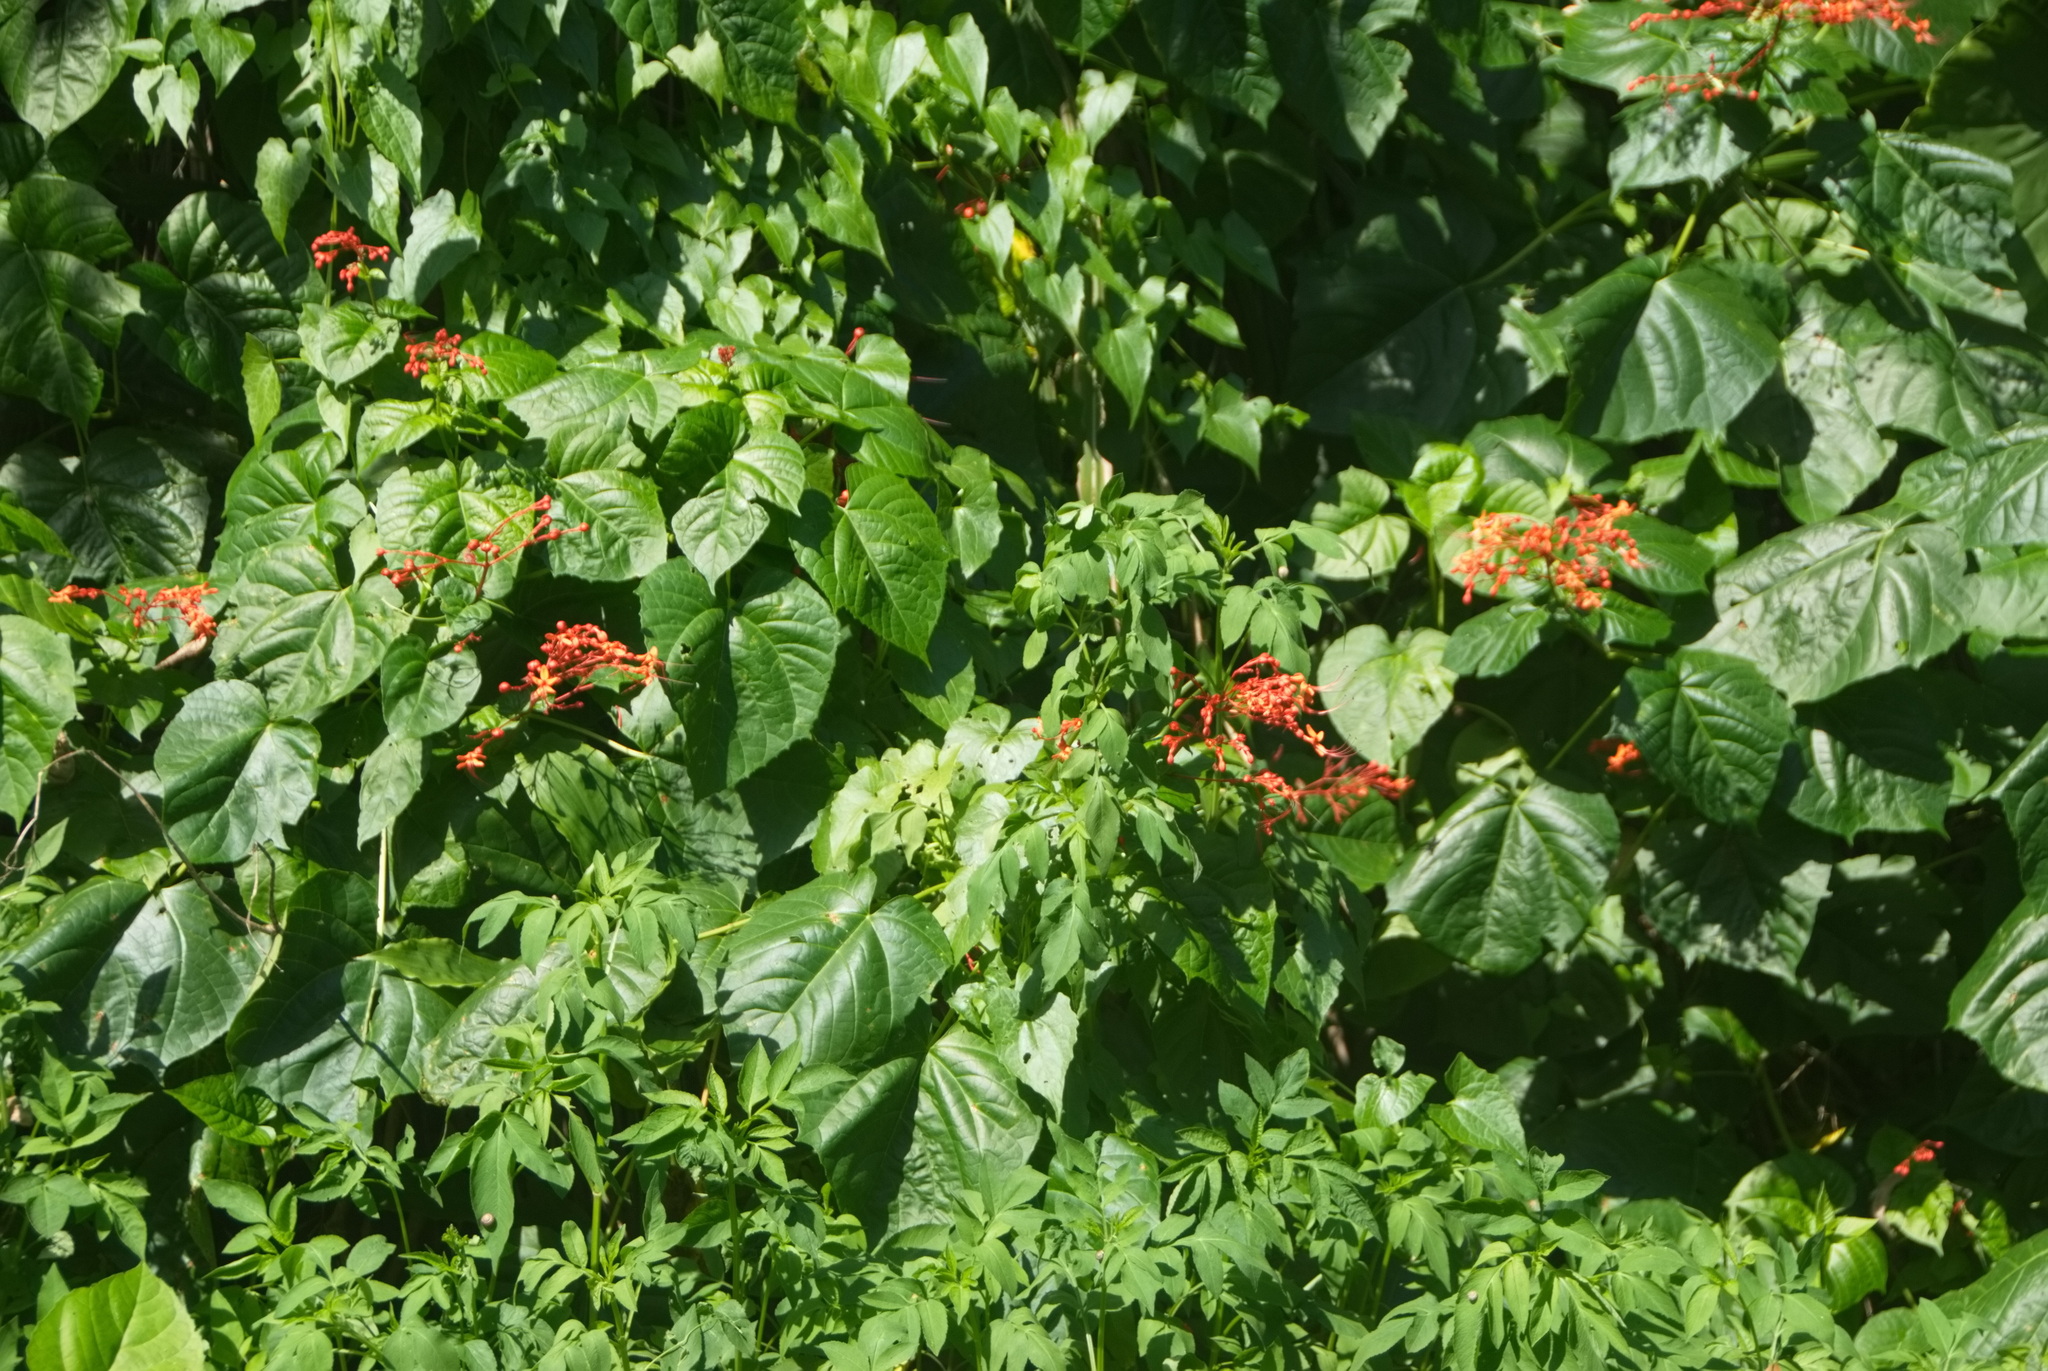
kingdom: Plantae
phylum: Tracheophyta
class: Magnoliopsida
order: Lamiales
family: Lamiaceae
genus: Clerodendrum
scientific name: Clerodendrum japonicum
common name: Japanese glorybower
